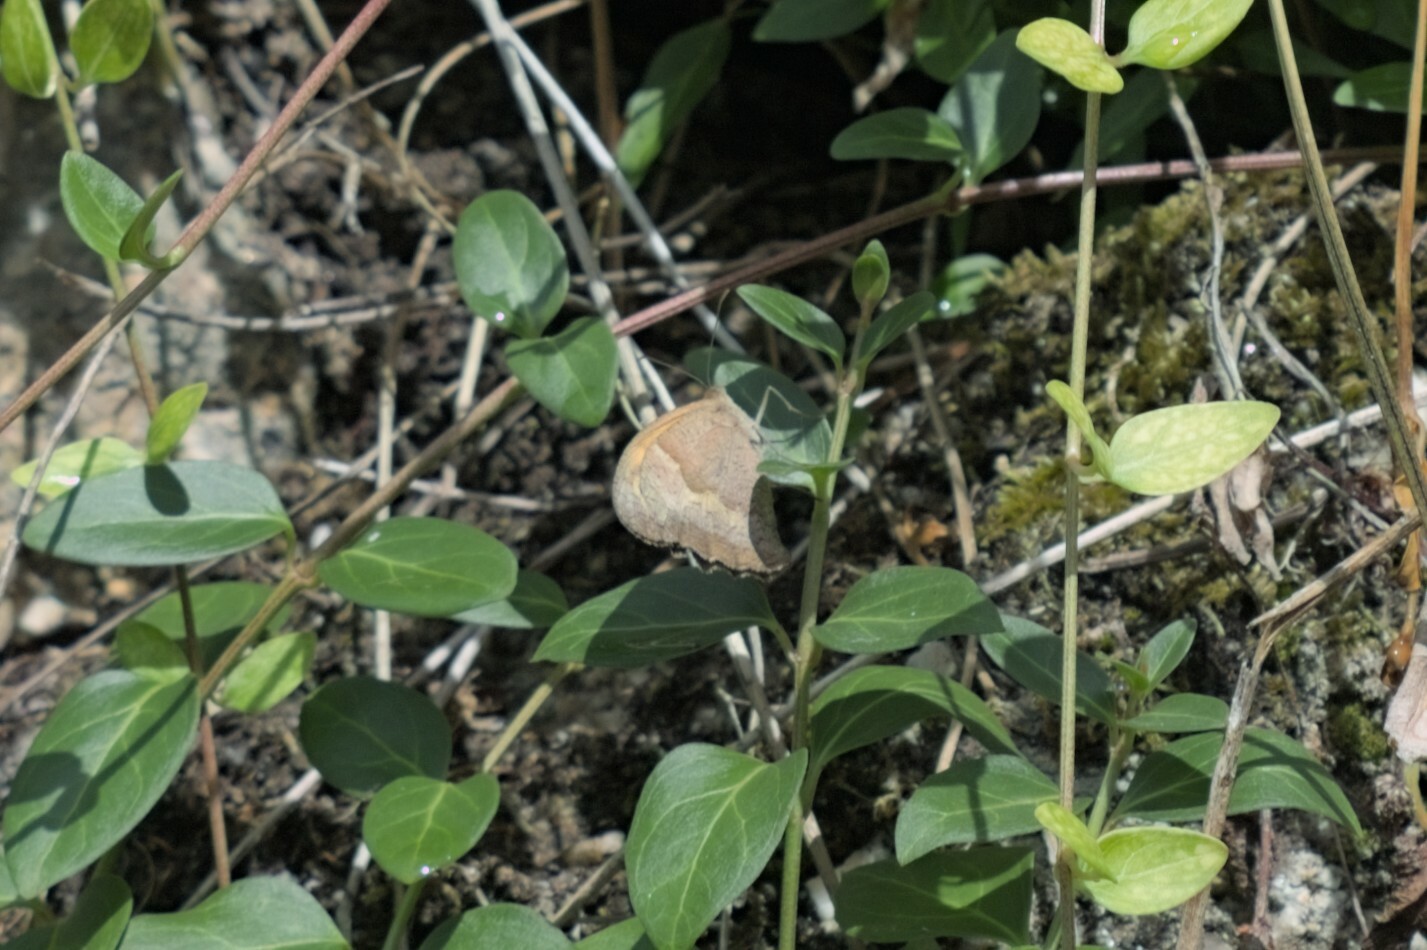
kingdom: Animalia
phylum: Arthropoda
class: Insecta
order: Lepidoptera
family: Nymphalidae
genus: Maniola
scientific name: Maniola jurtina
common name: Meadow brown
